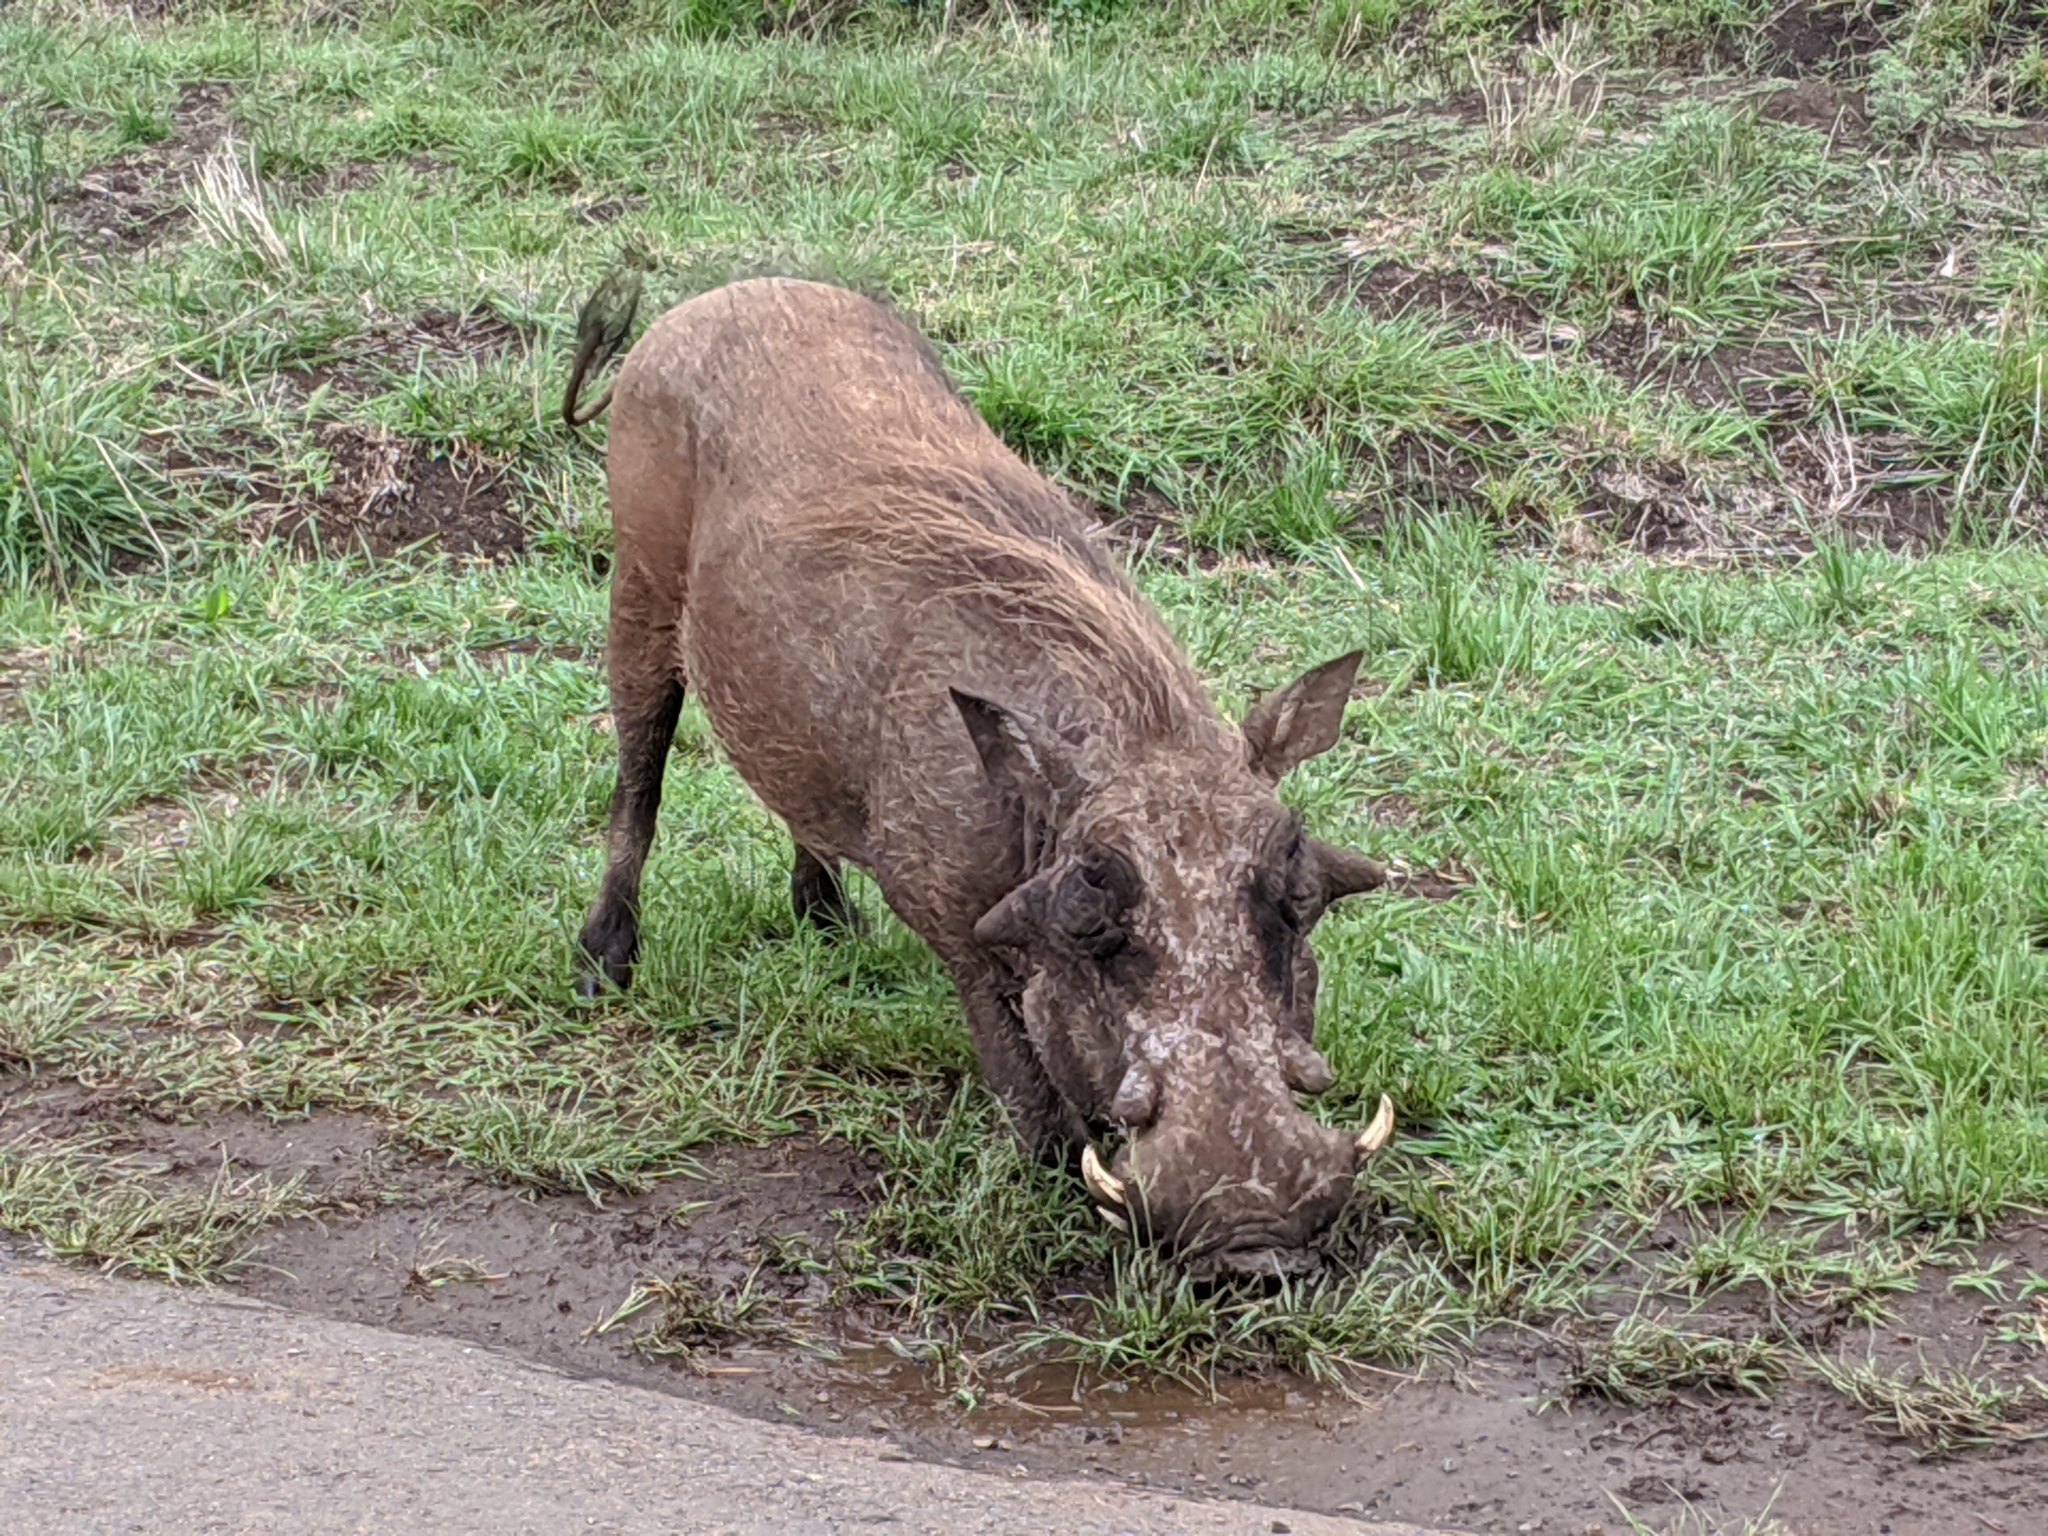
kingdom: Animalia
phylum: Chordata
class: Mammalia
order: Artiodactyla
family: Suidae
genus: Phacochoerus
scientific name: Phacochoerus africanus
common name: Common warthog
